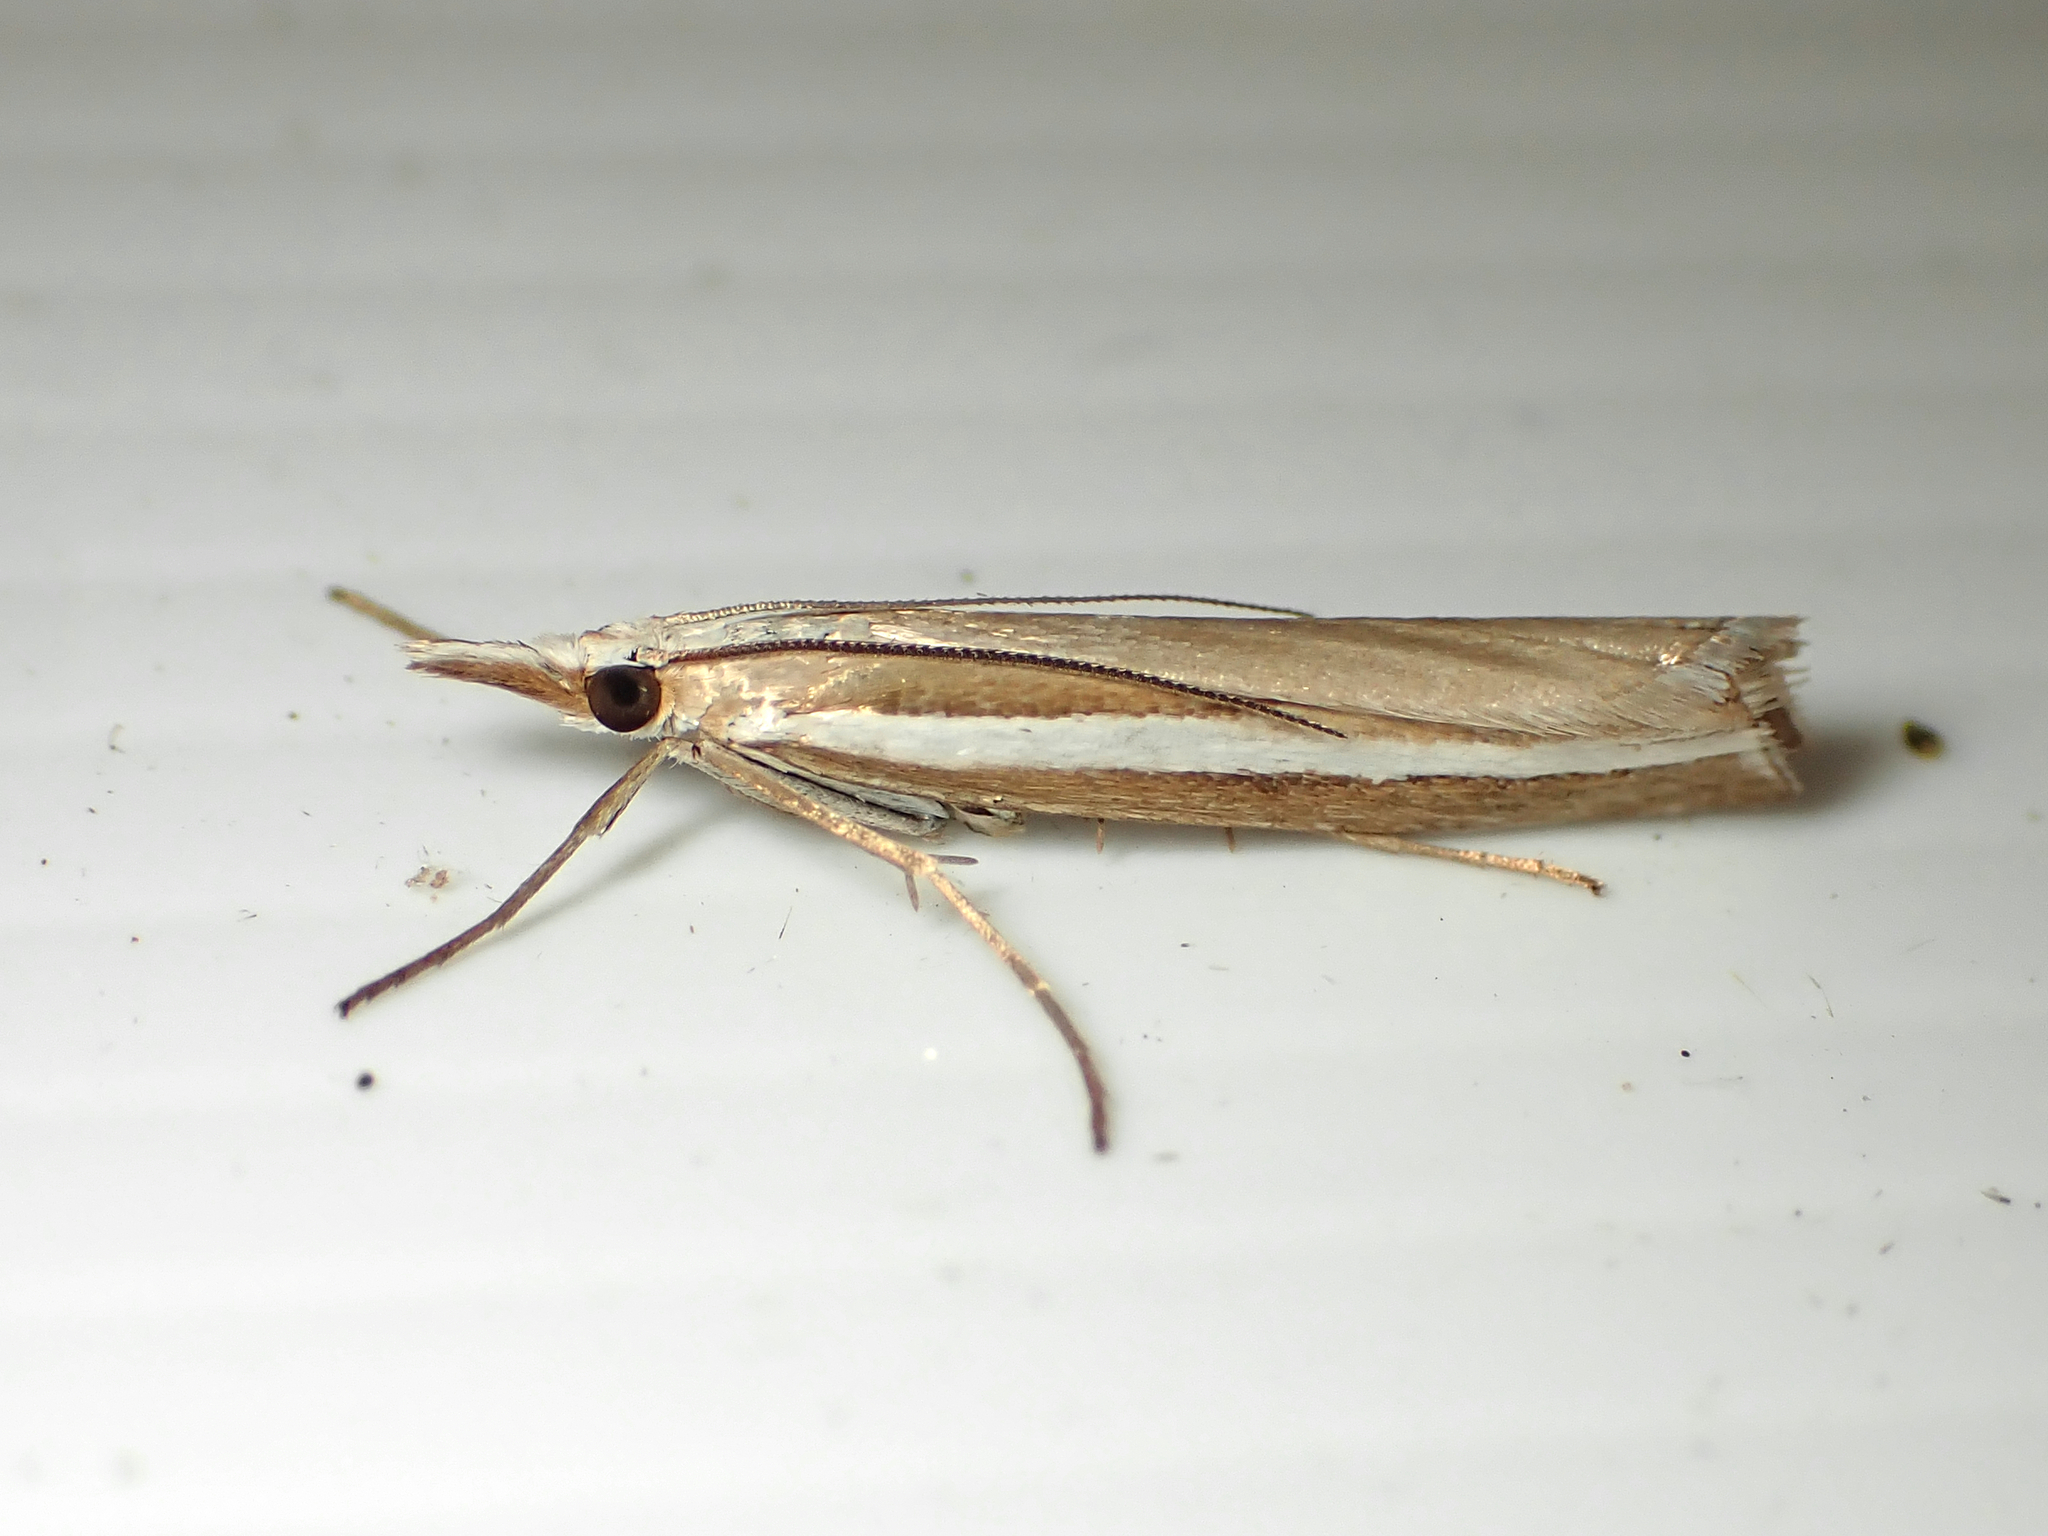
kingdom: Animalia
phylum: Arthropoda
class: Insecta
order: Lepidoptera
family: Crambidae
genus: Orocrambus
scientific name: Orocrambus vittellus
